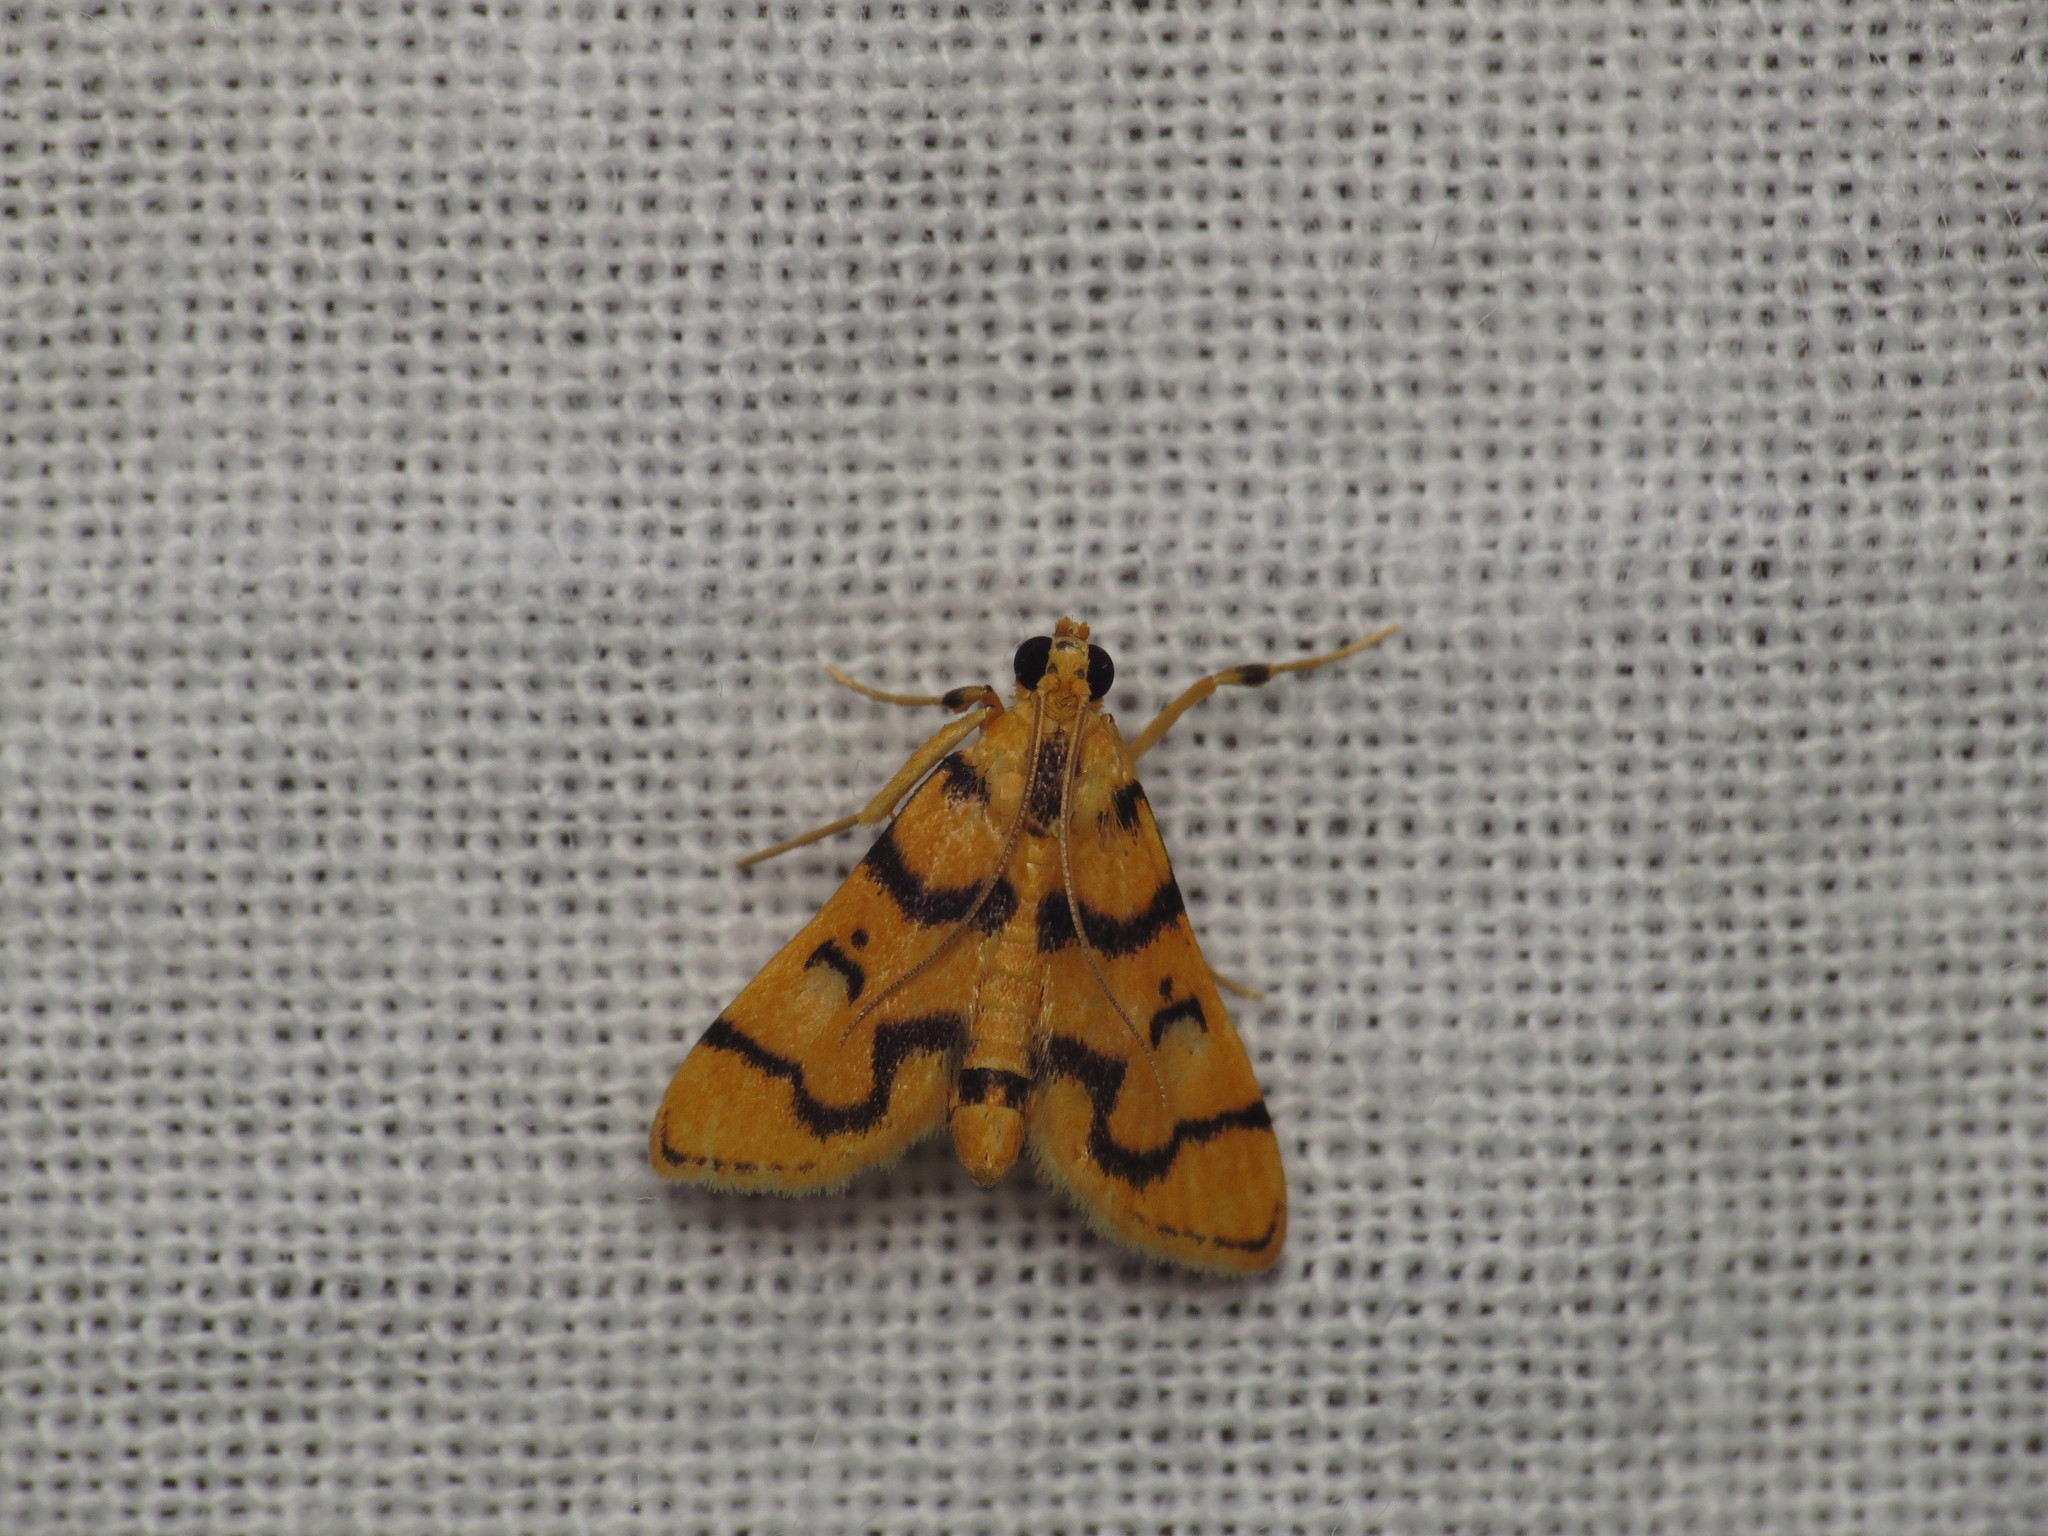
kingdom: Animalia
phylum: Arthropoda
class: Insecta
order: Lepidoptera
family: Crambidae
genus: Dichocrocis
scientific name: Dichocrocis erixantha
